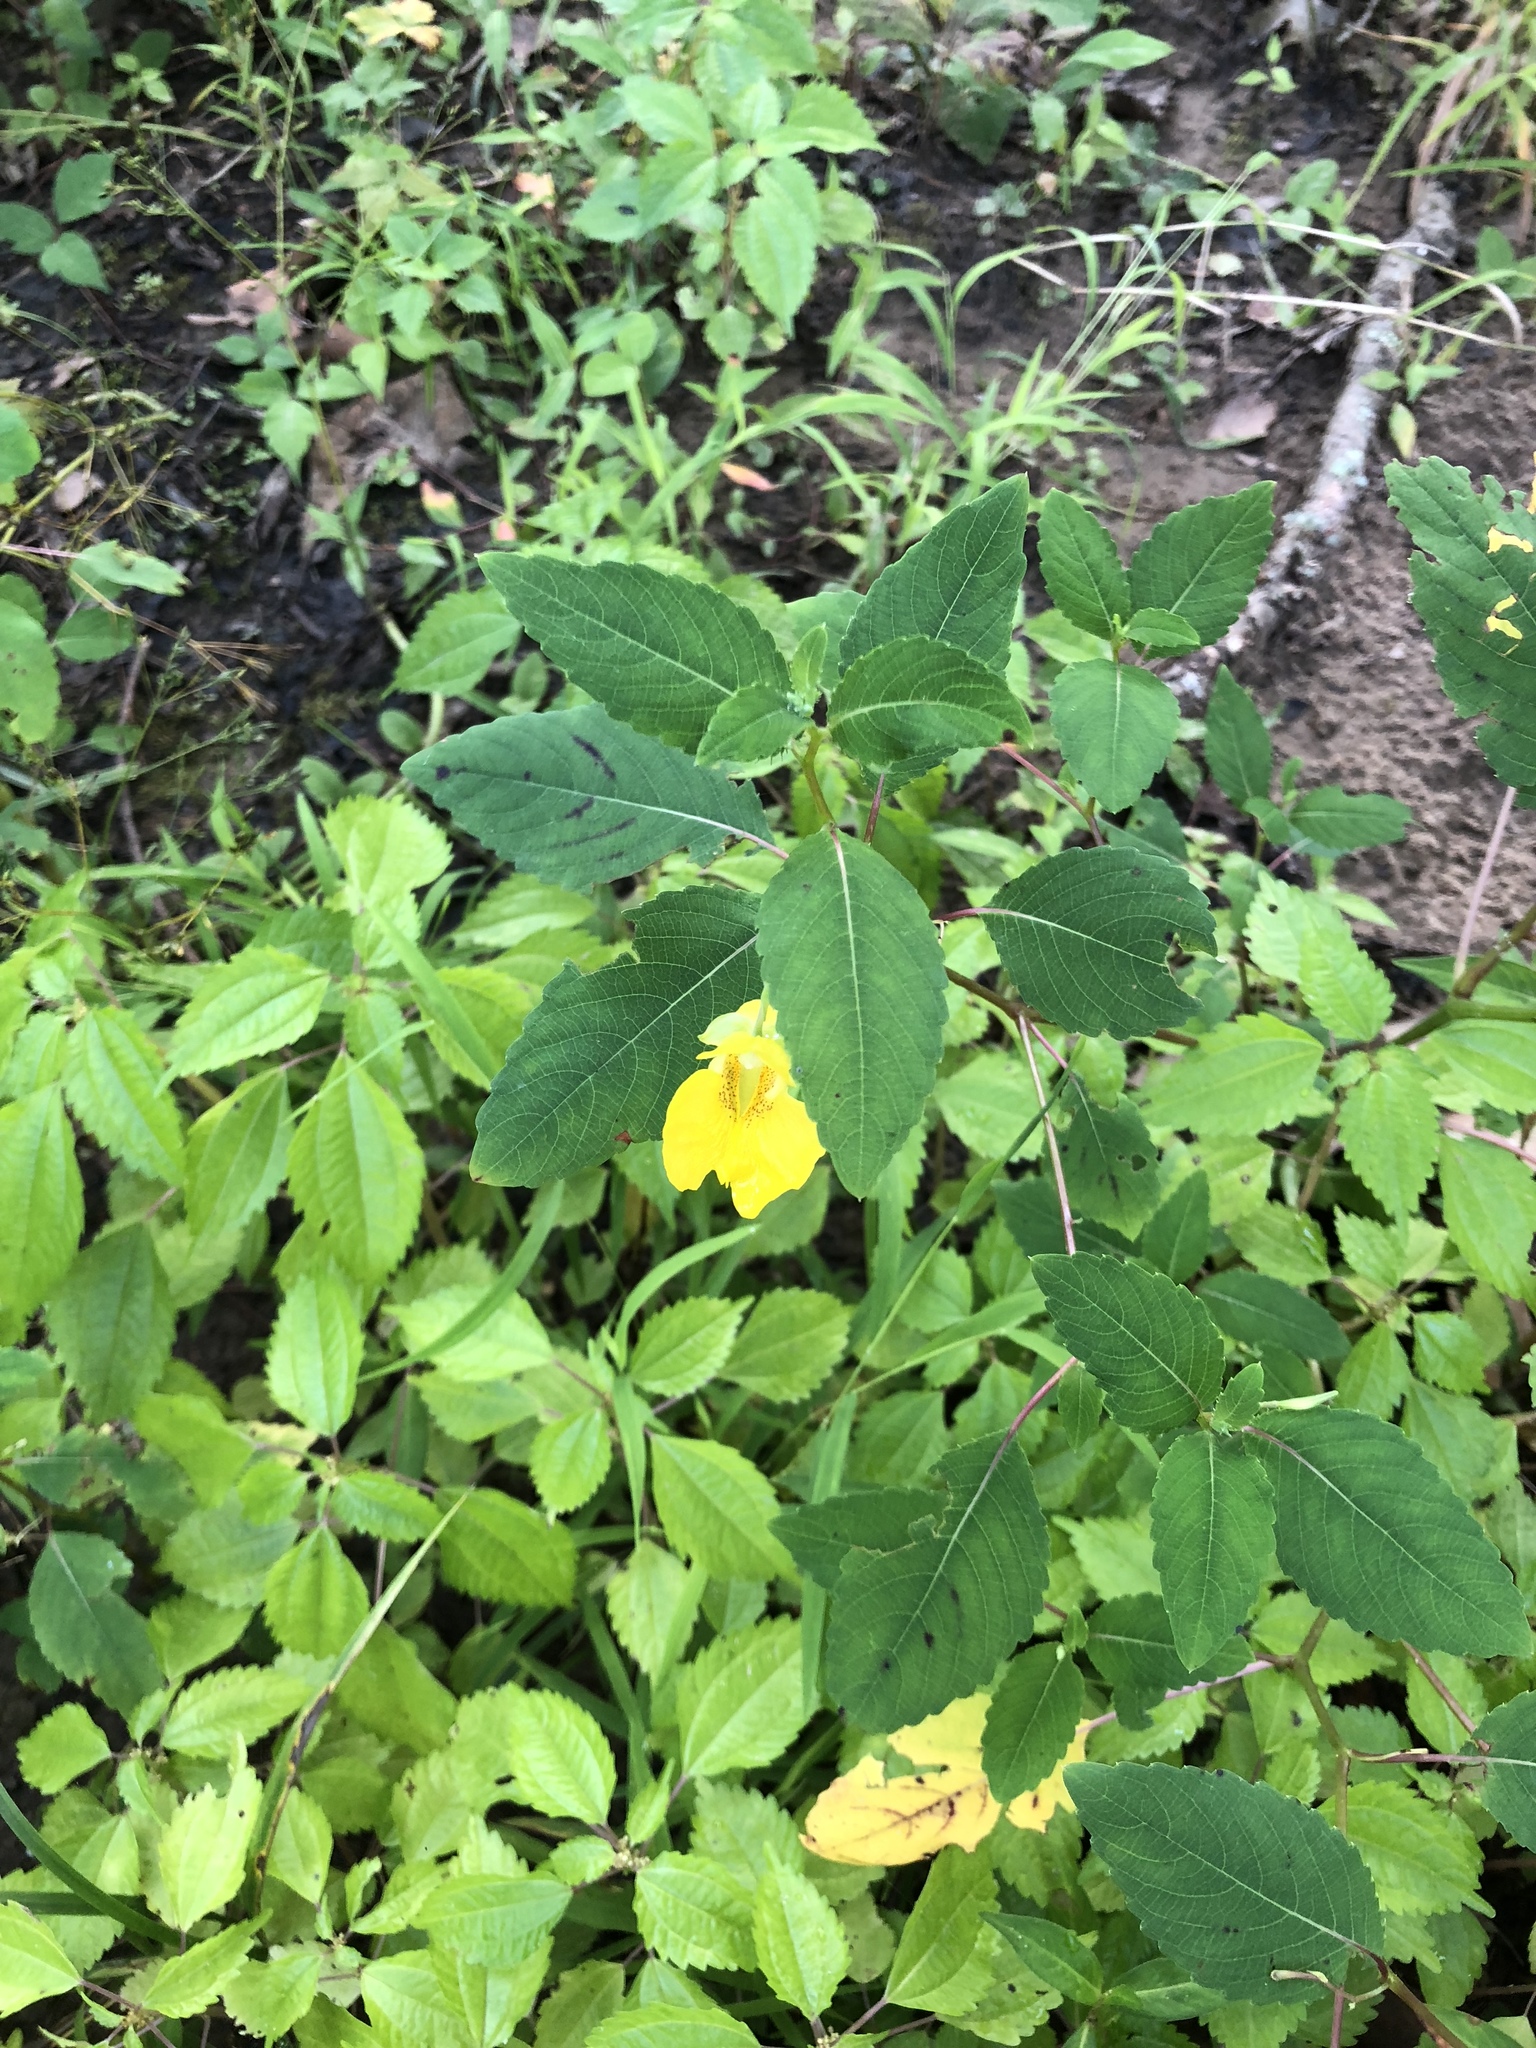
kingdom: Plantae
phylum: Tracheophyta
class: Magnoliopsida
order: Ericales
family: Balsaminaceae
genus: Impatiens
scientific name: Impatiens pallida
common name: Pale snapweed
